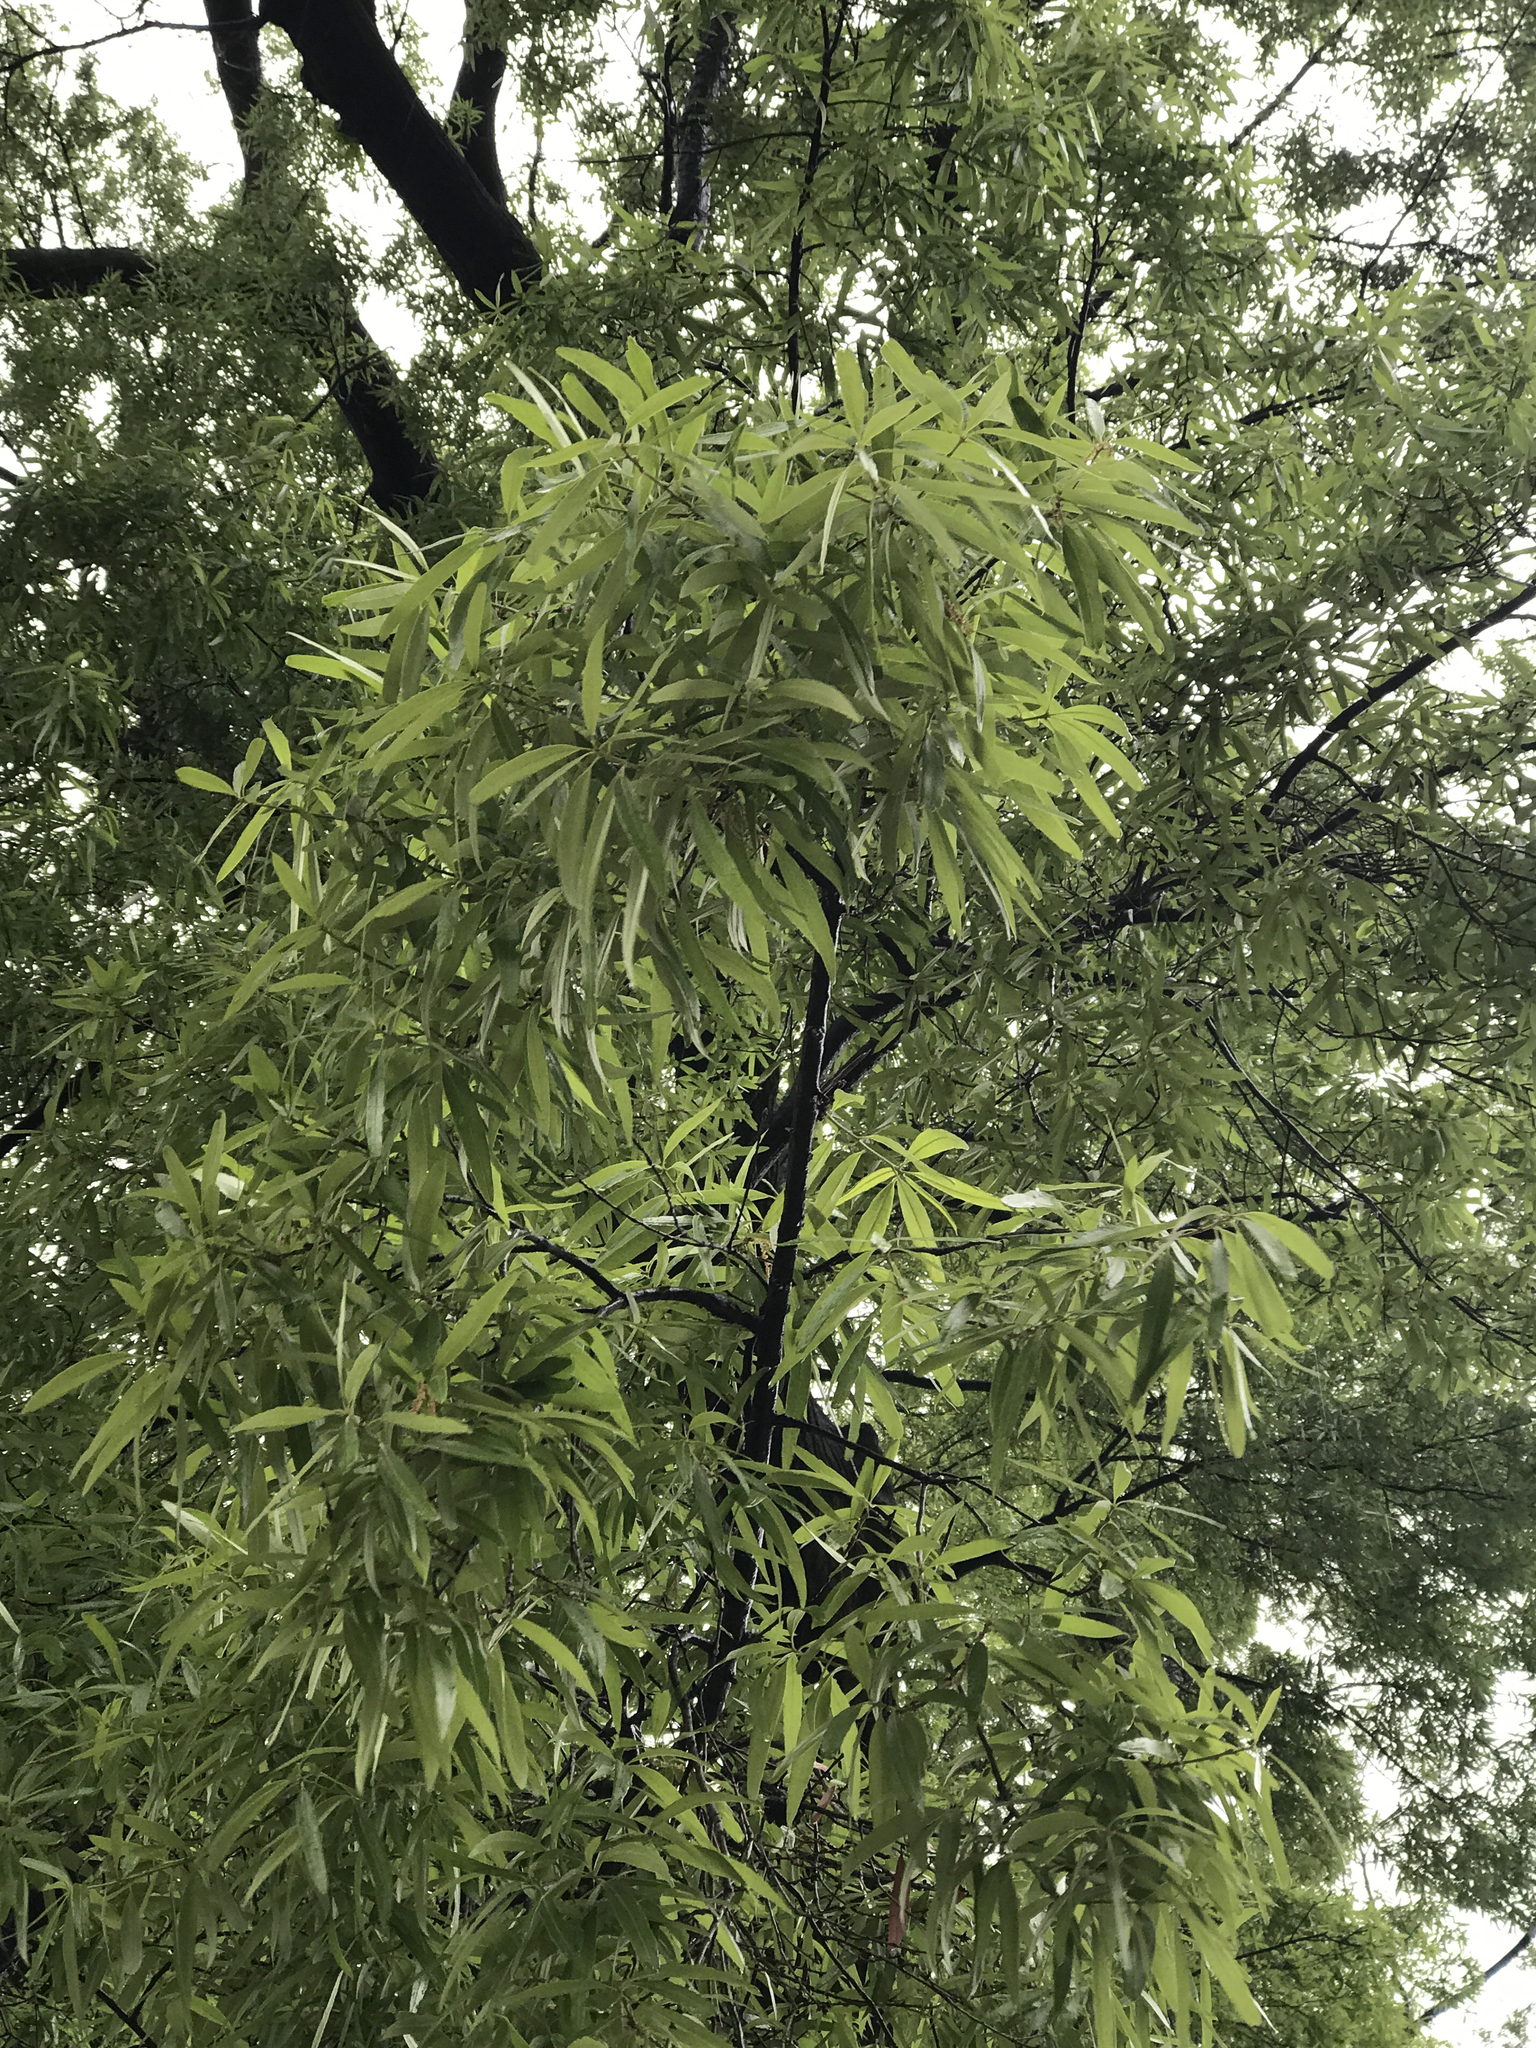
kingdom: Plantae
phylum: Tracheophyta
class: Magnoliopsida
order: Fagales
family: Fagaceae
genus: Quercus
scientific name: Quercus phellos
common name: Willow oak
